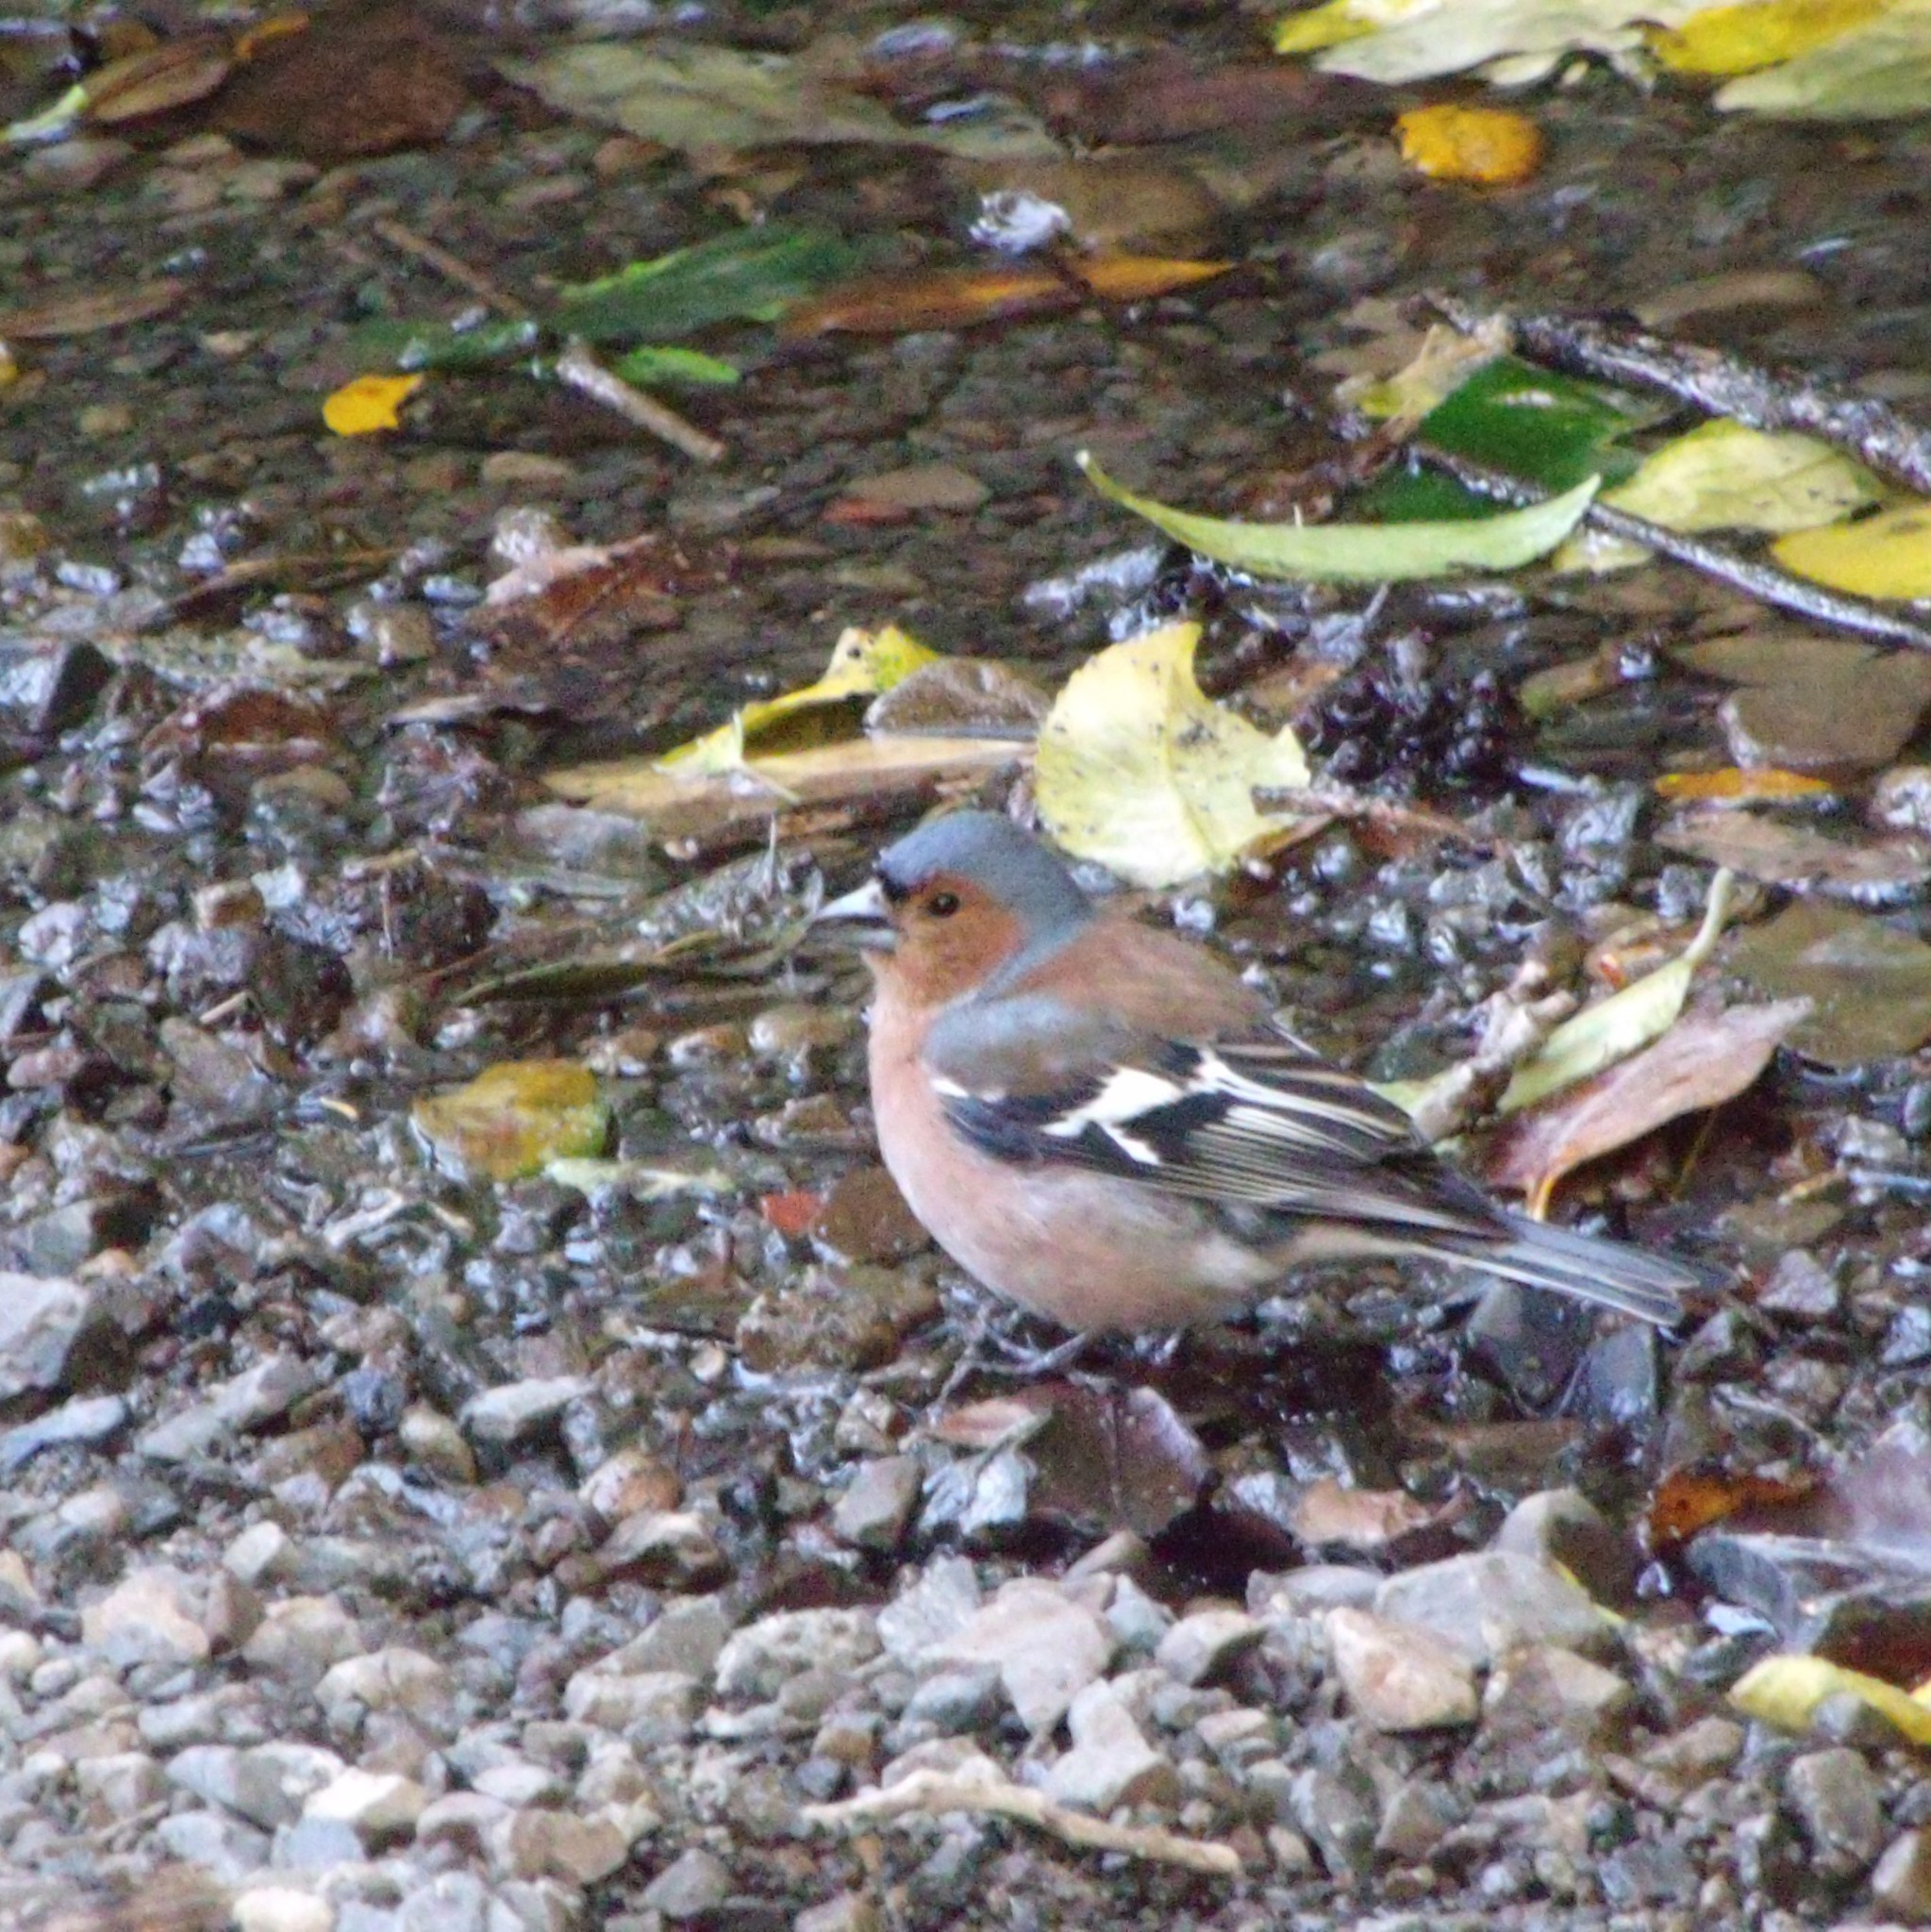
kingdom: Animalia
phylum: Chordata
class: Aves
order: Passeriformes
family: Fringillidae
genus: Fringilla
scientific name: Fringilla coelebs
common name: Common chaffinch
